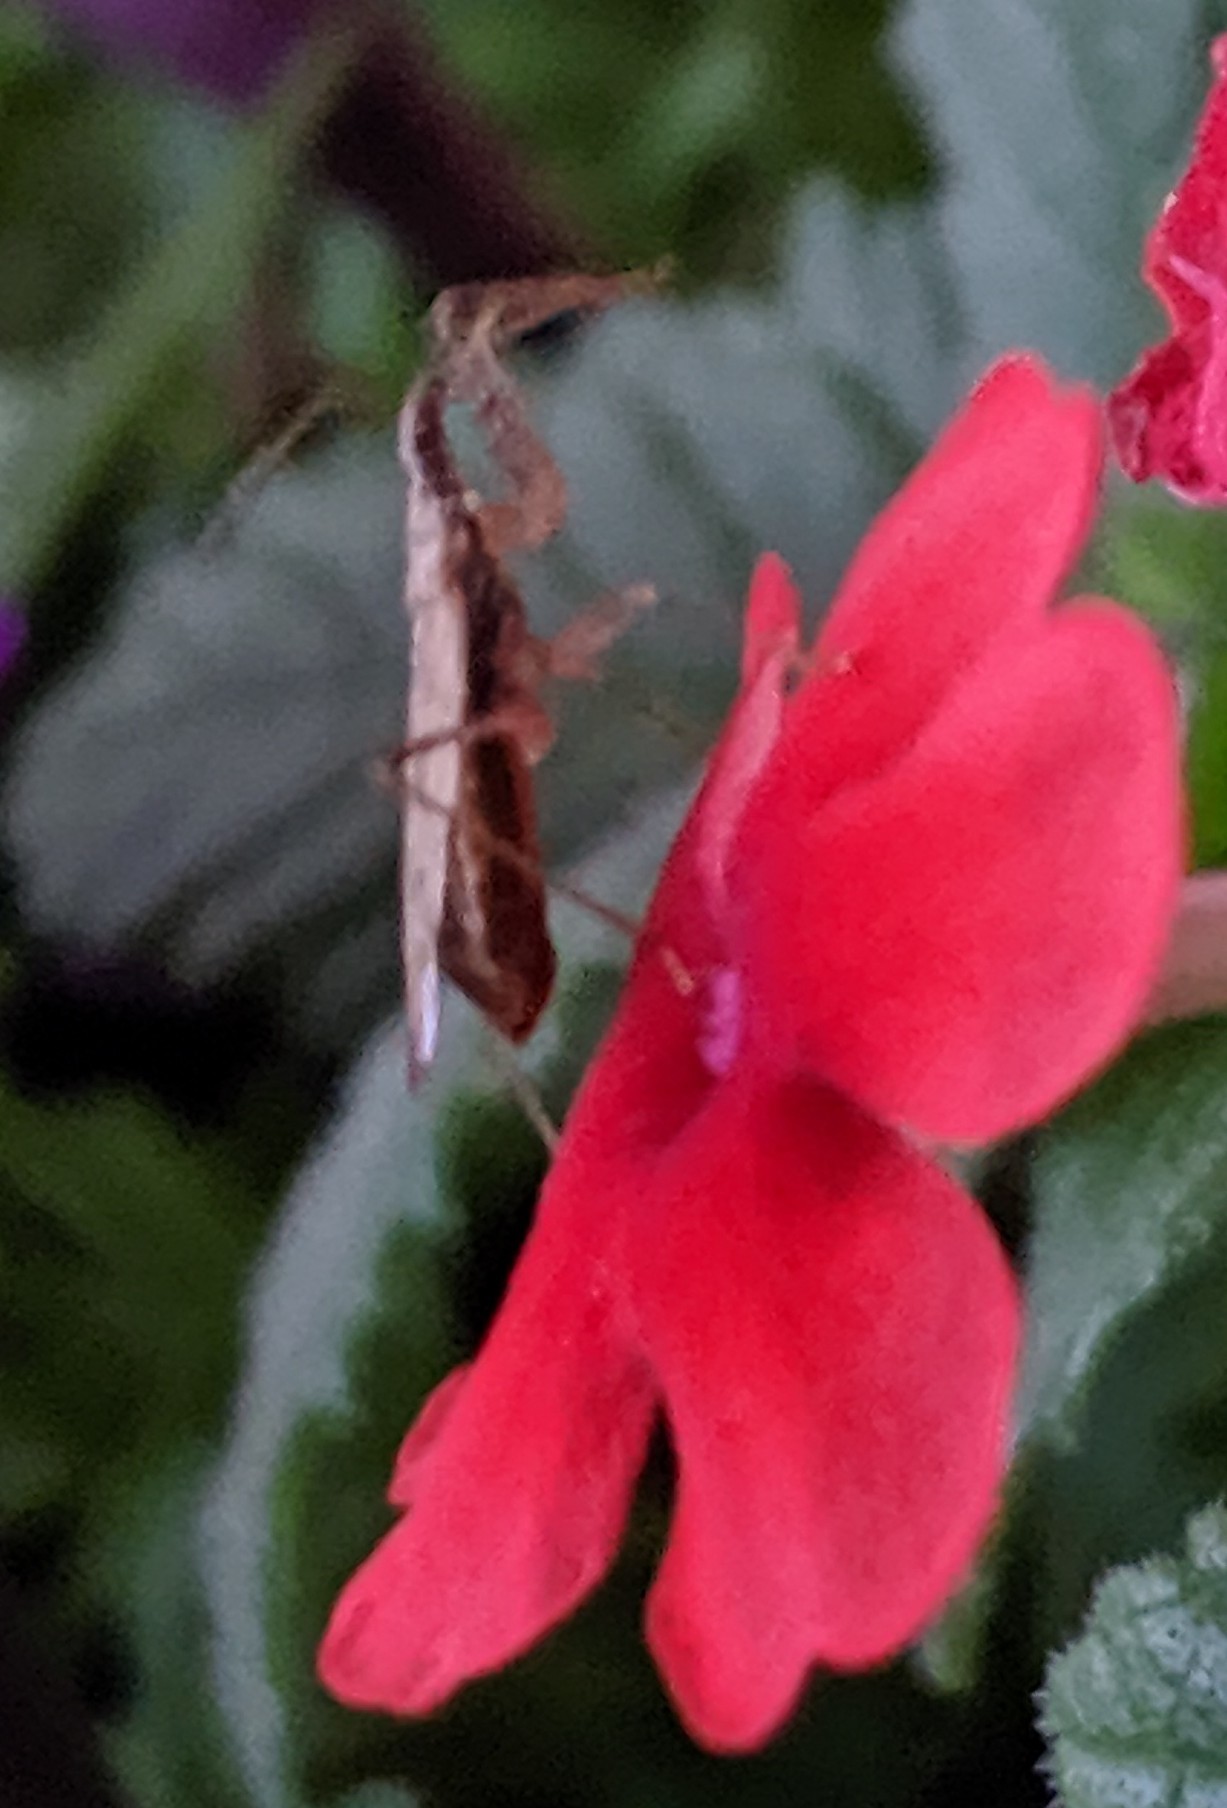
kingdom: Animalia
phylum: Arthropoda
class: Insecta
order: Hemiptera
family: Nabidae
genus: Nabis
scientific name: Nabis
